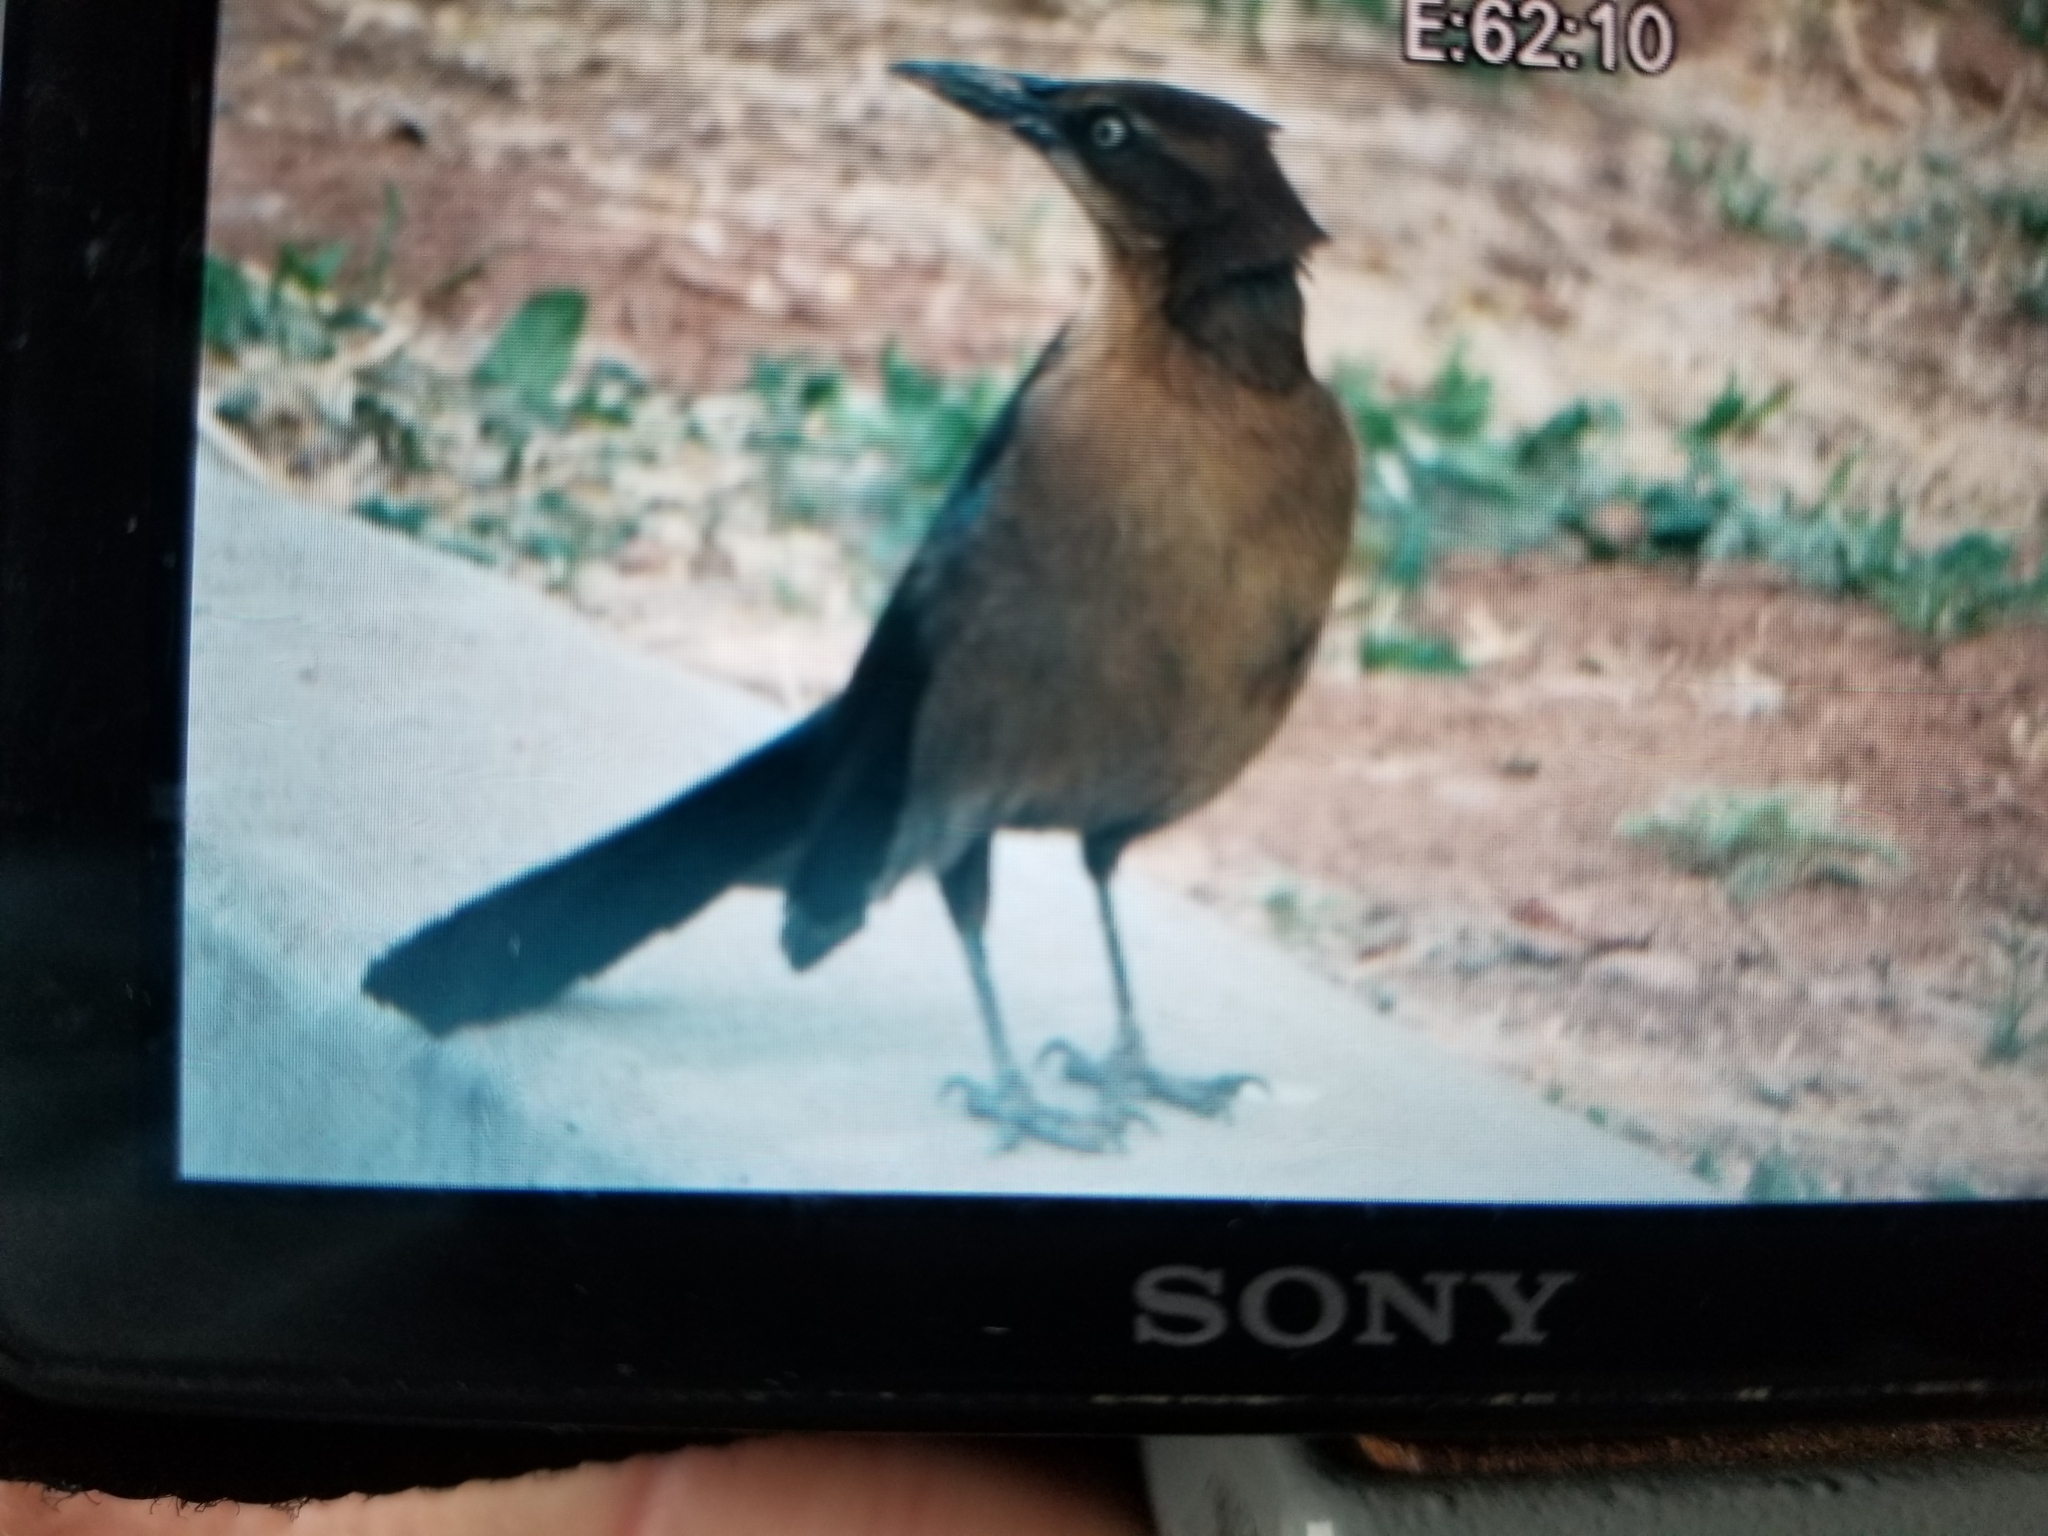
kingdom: Animalia
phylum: Chordata
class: Aves
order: Passeriformes
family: Icteridae
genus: Quiscalus
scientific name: Quiscalus mexicanus
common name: Great-tailed grackle
